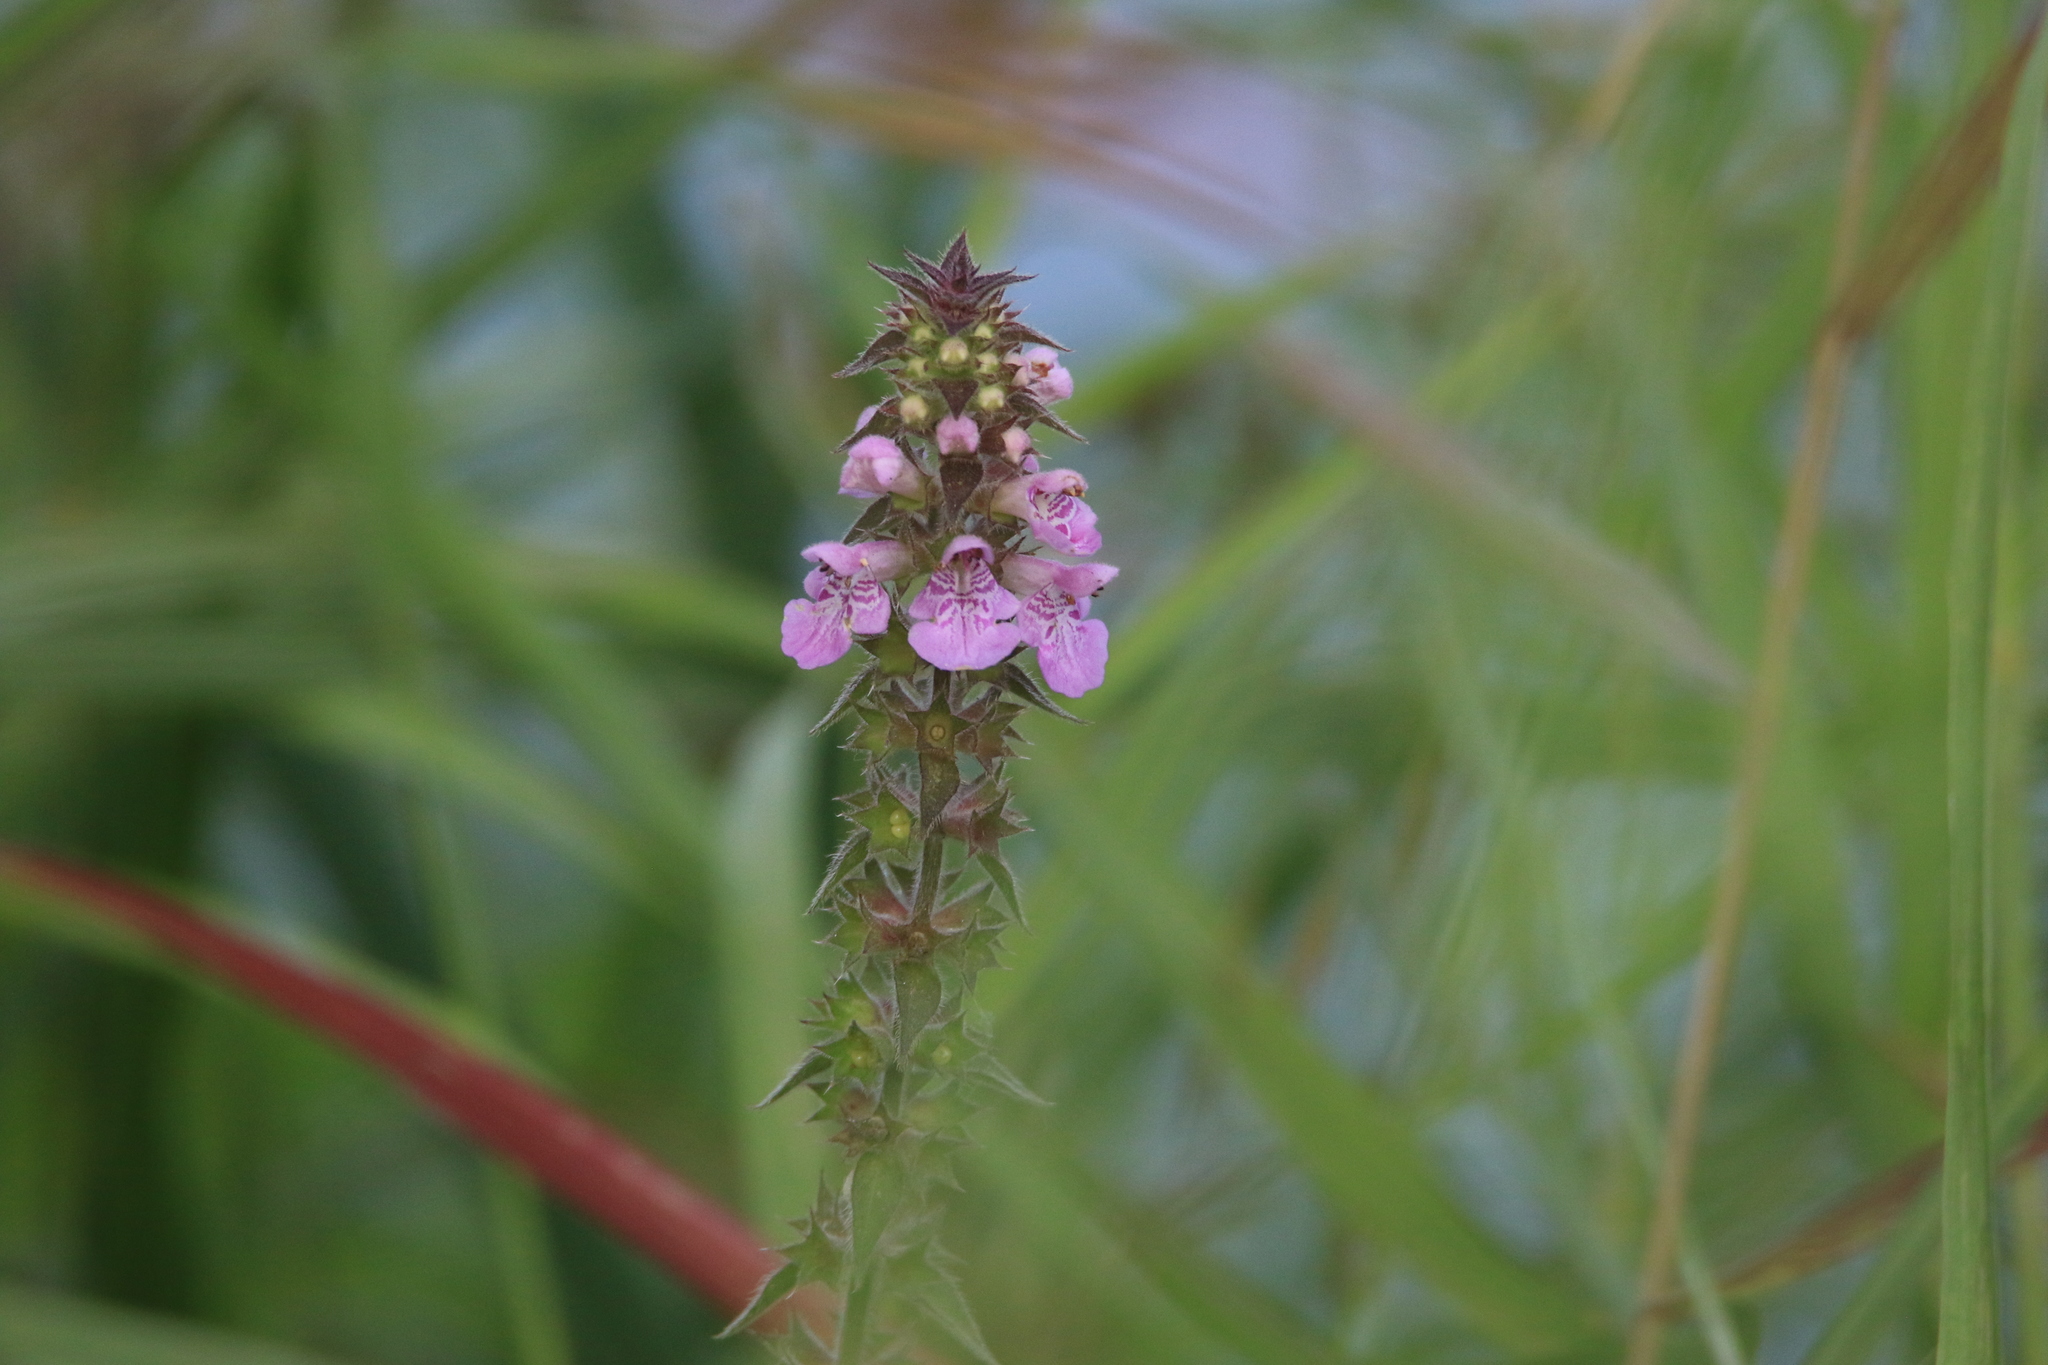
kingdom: Plantae
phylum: Tracheophyta
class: Magnoliopsida
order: Lamiales
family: Lamiaceae
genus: Stachys
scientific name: Stachys palustris
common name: Marsh woundwort
